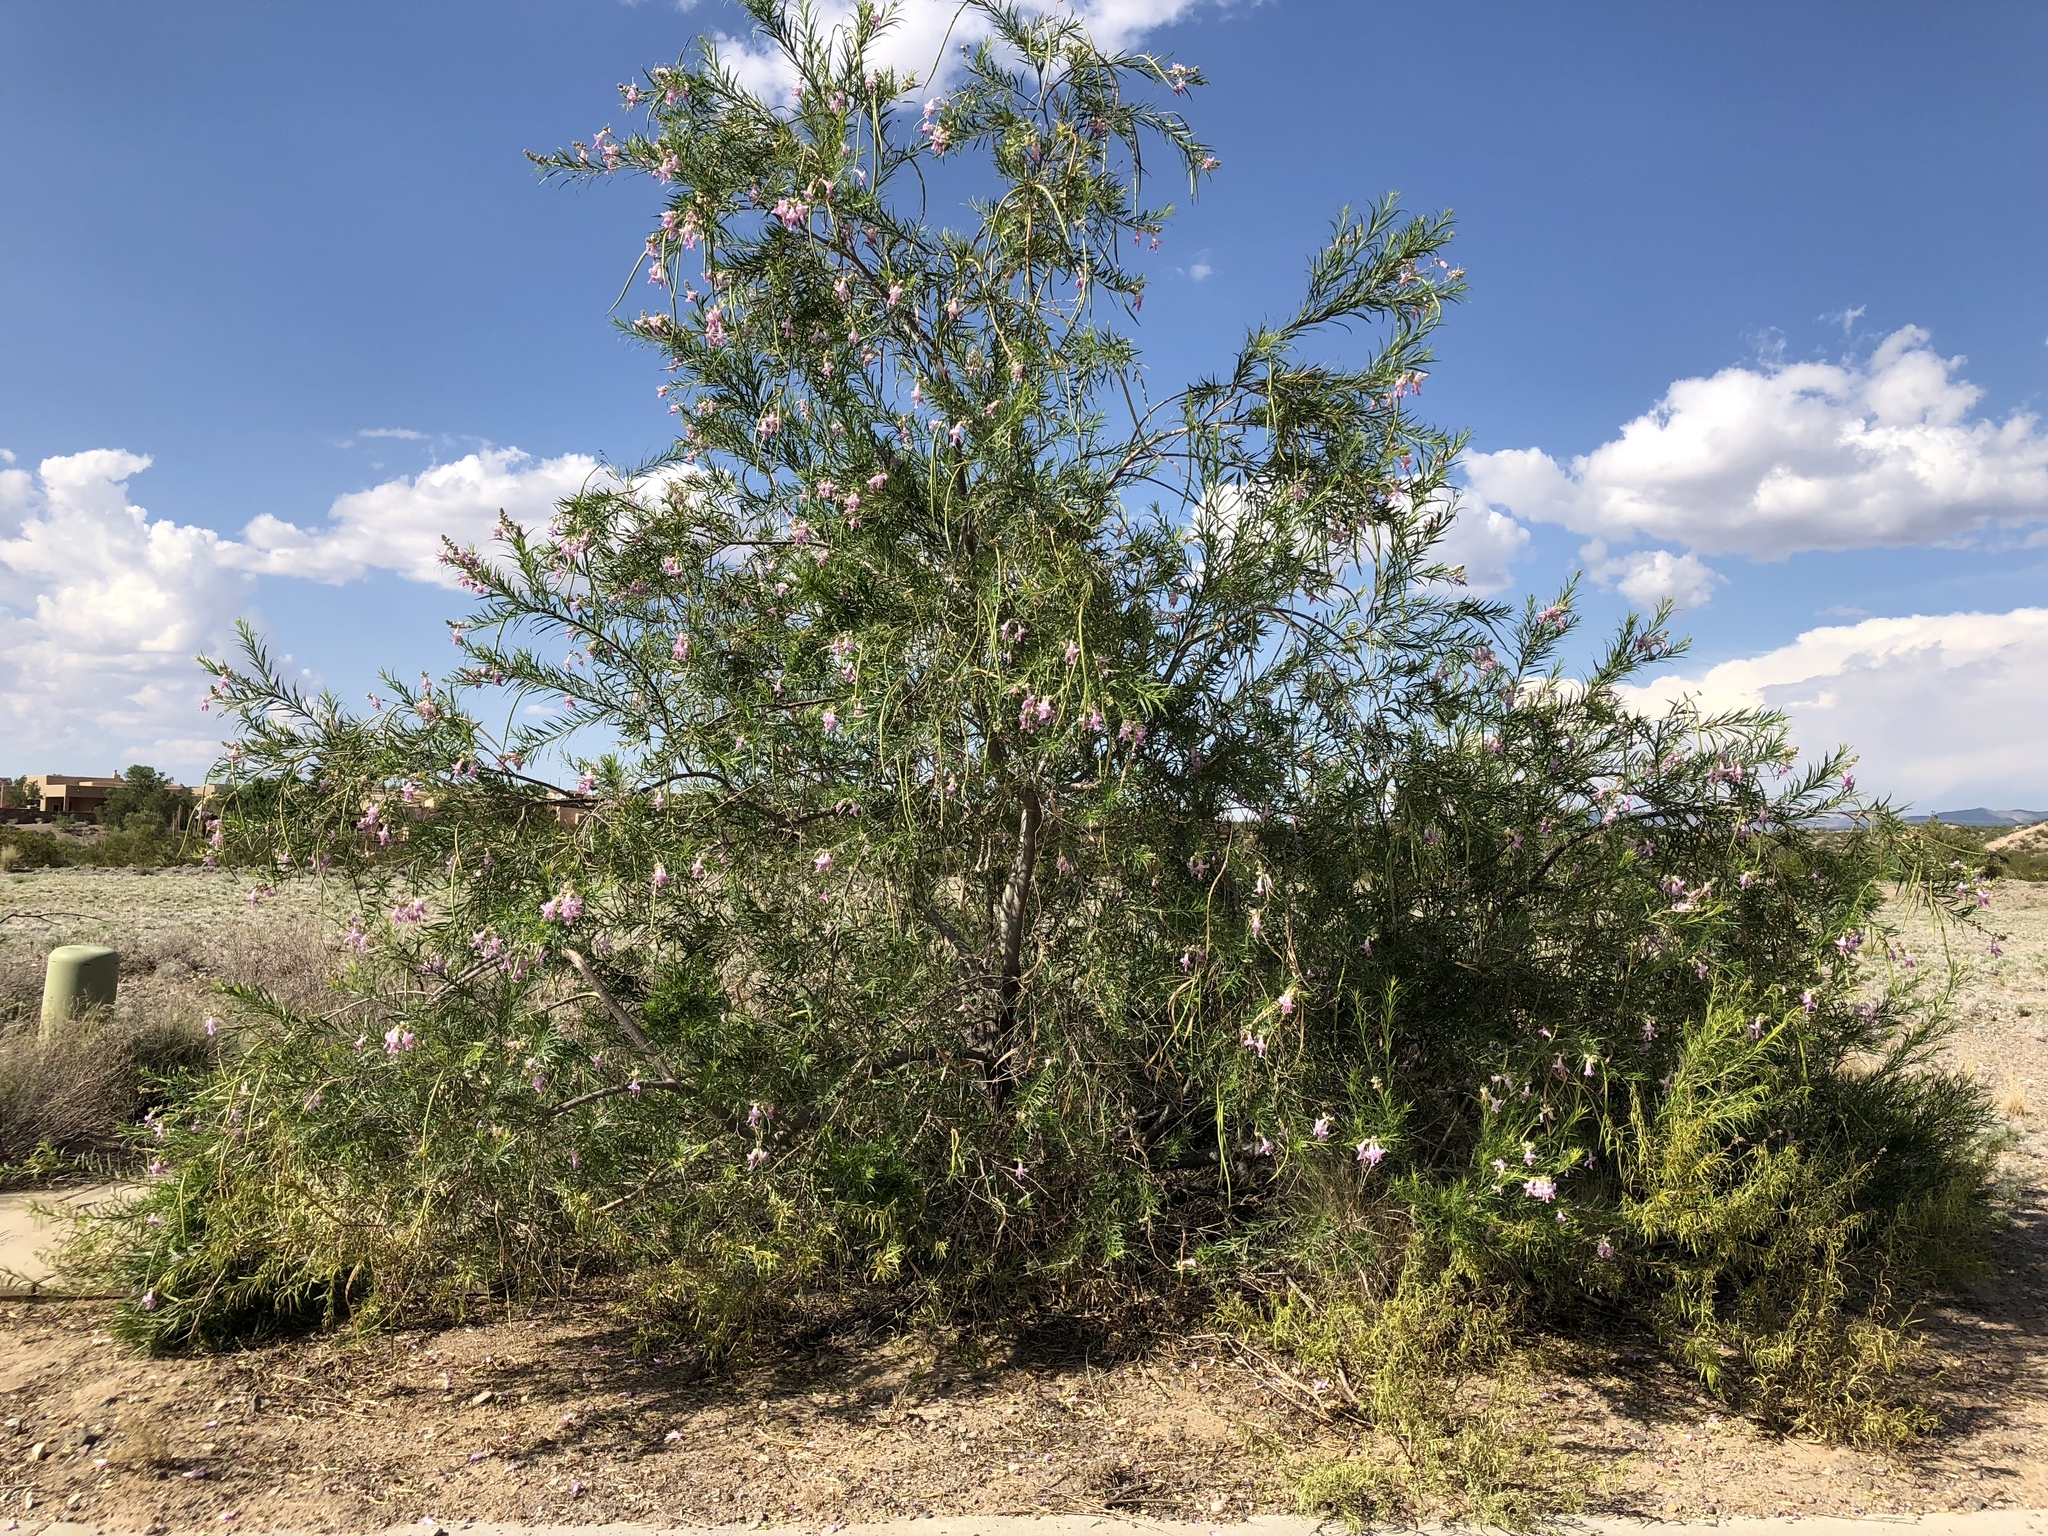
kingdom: Plantae
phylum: Tracheophyta
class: Magnoliopsida
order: Lamiales
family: Bignoniaceae
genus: Chilopsis
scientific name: Chilopsis linearis
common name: Desert-willow
